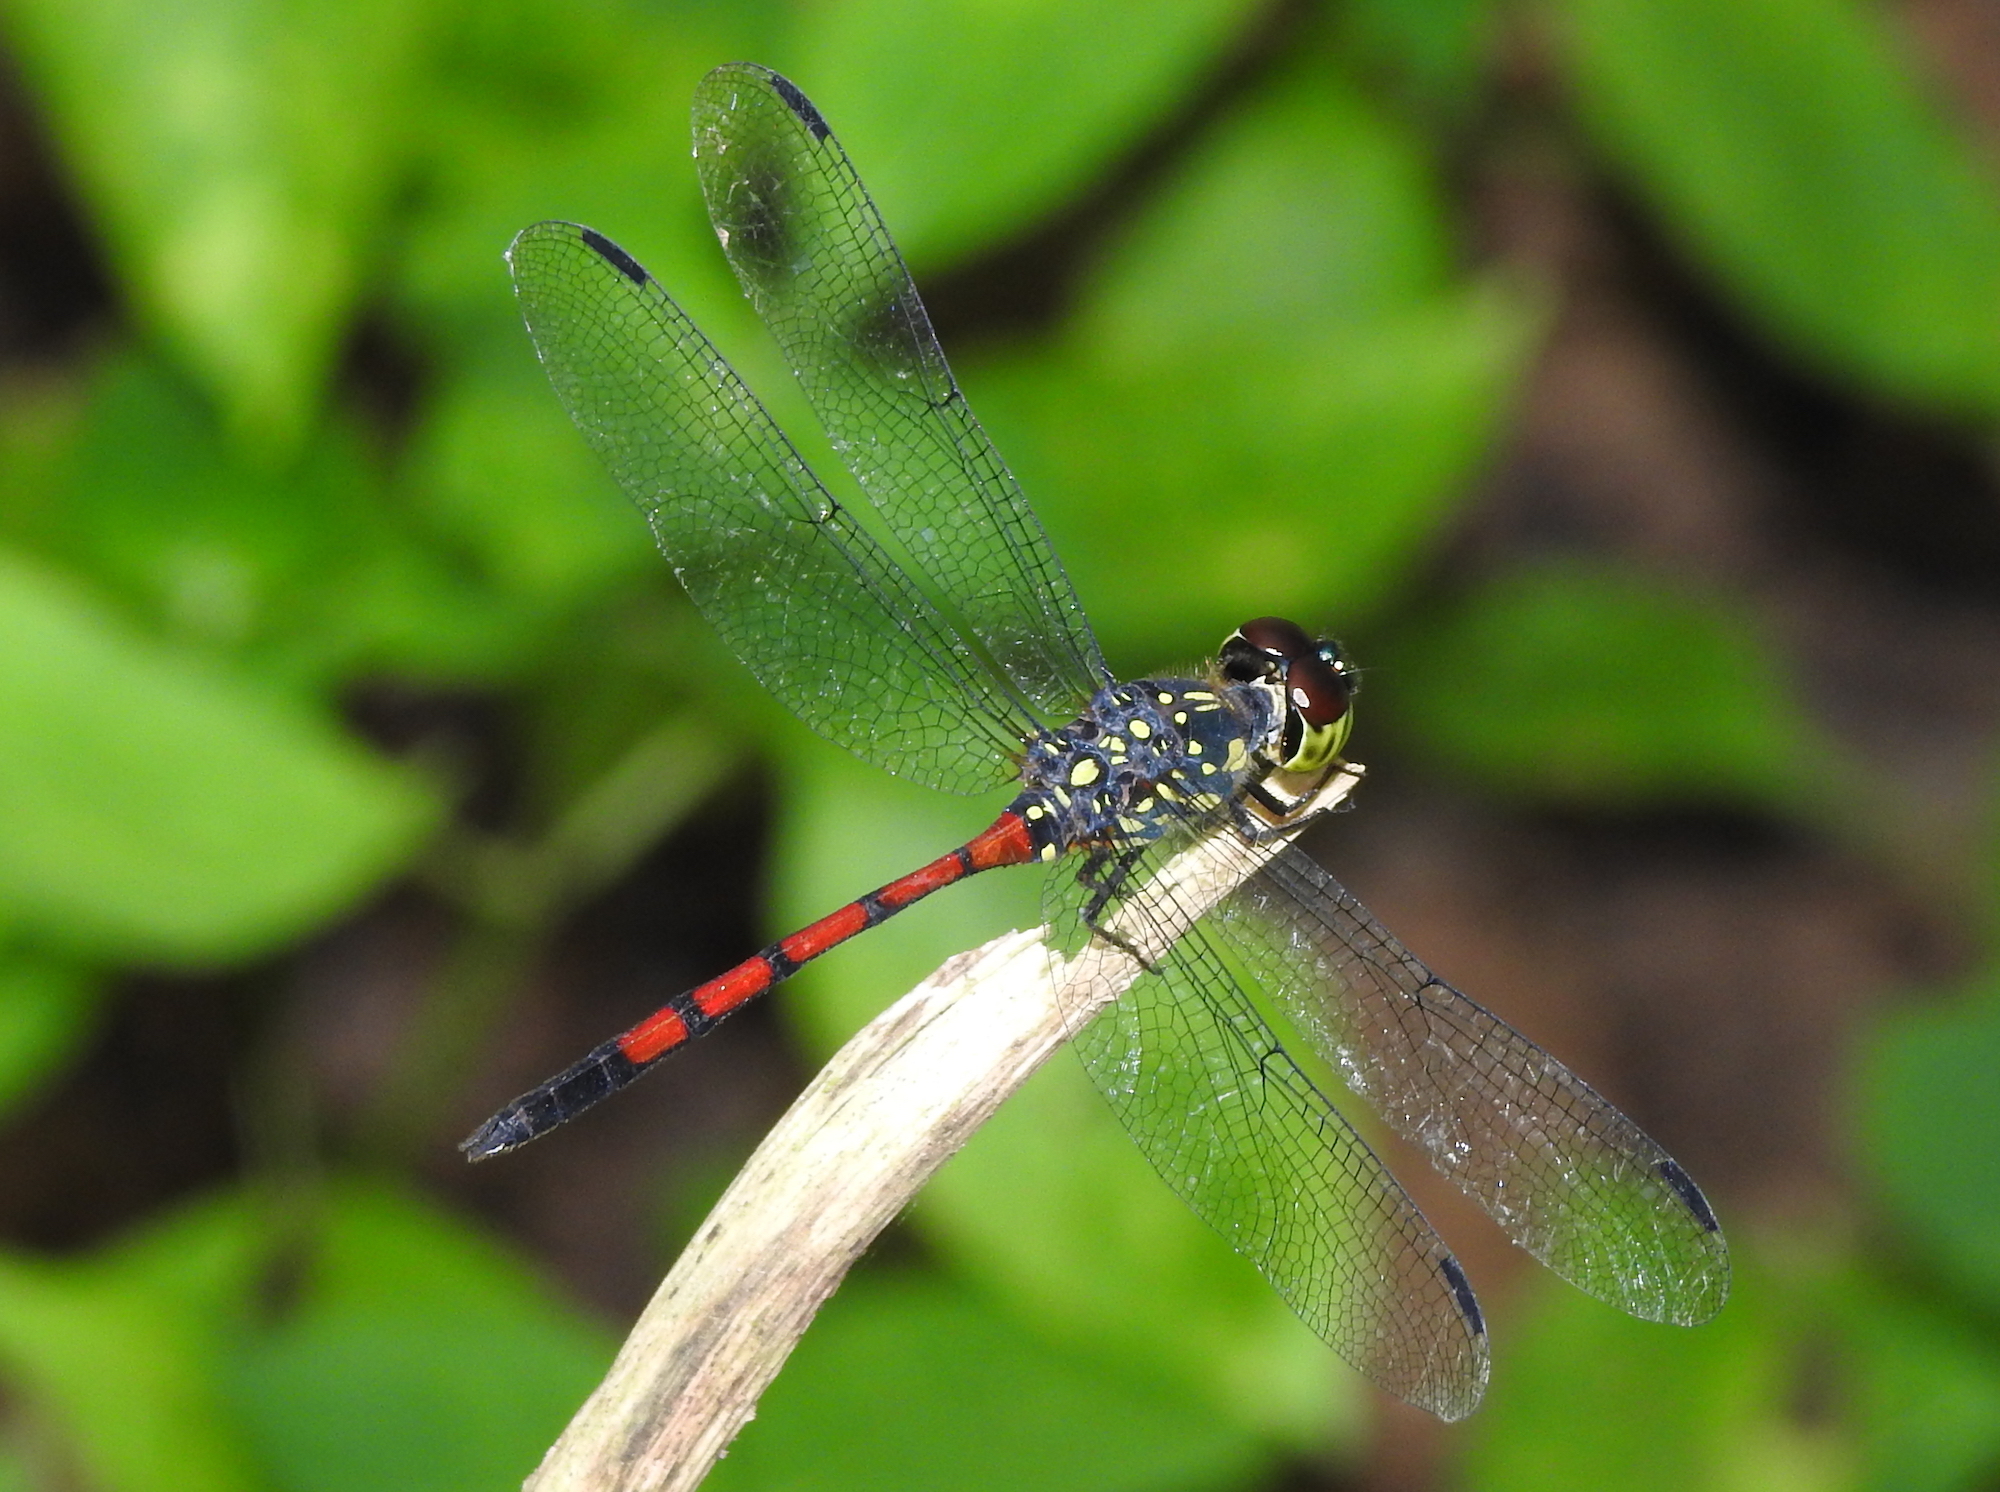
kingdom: Animalia
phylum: Arthropoda
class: Insecta
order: Odonata
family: Libellulidae
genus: Agrionoptera
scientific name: Agrionoptera insignis
